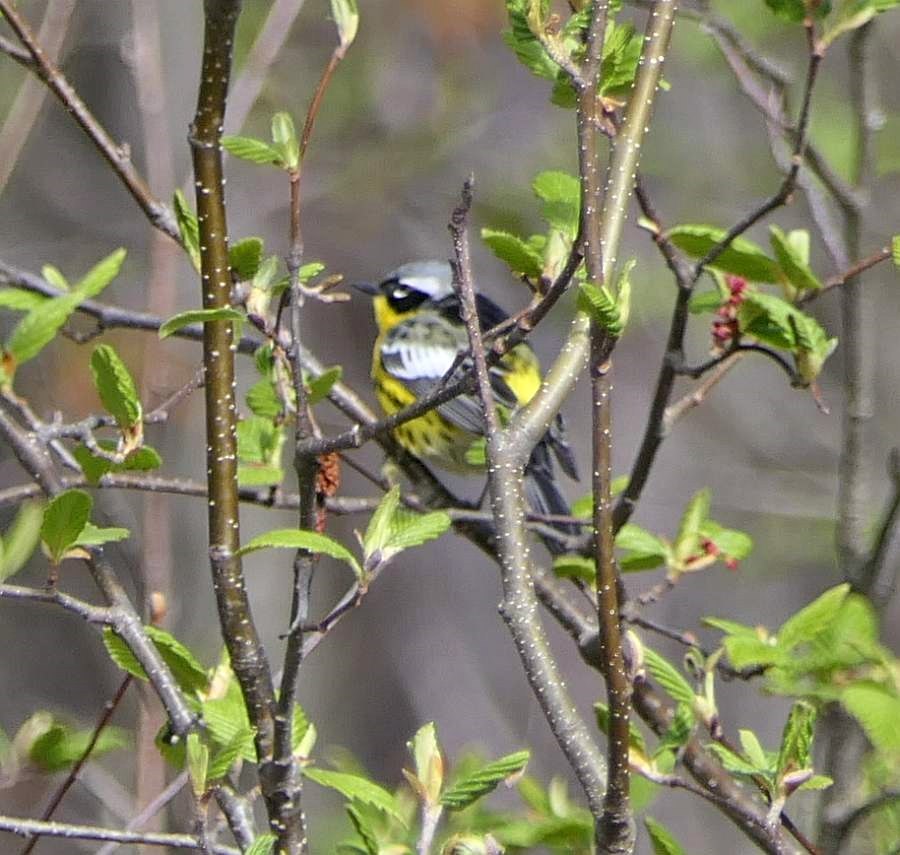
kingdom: Animalia
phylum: Chordata
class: Aves
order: Passeriformes
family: Parulidae
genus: Setophaga
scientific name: Setophaga magnolia
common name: Magnolia warbler
